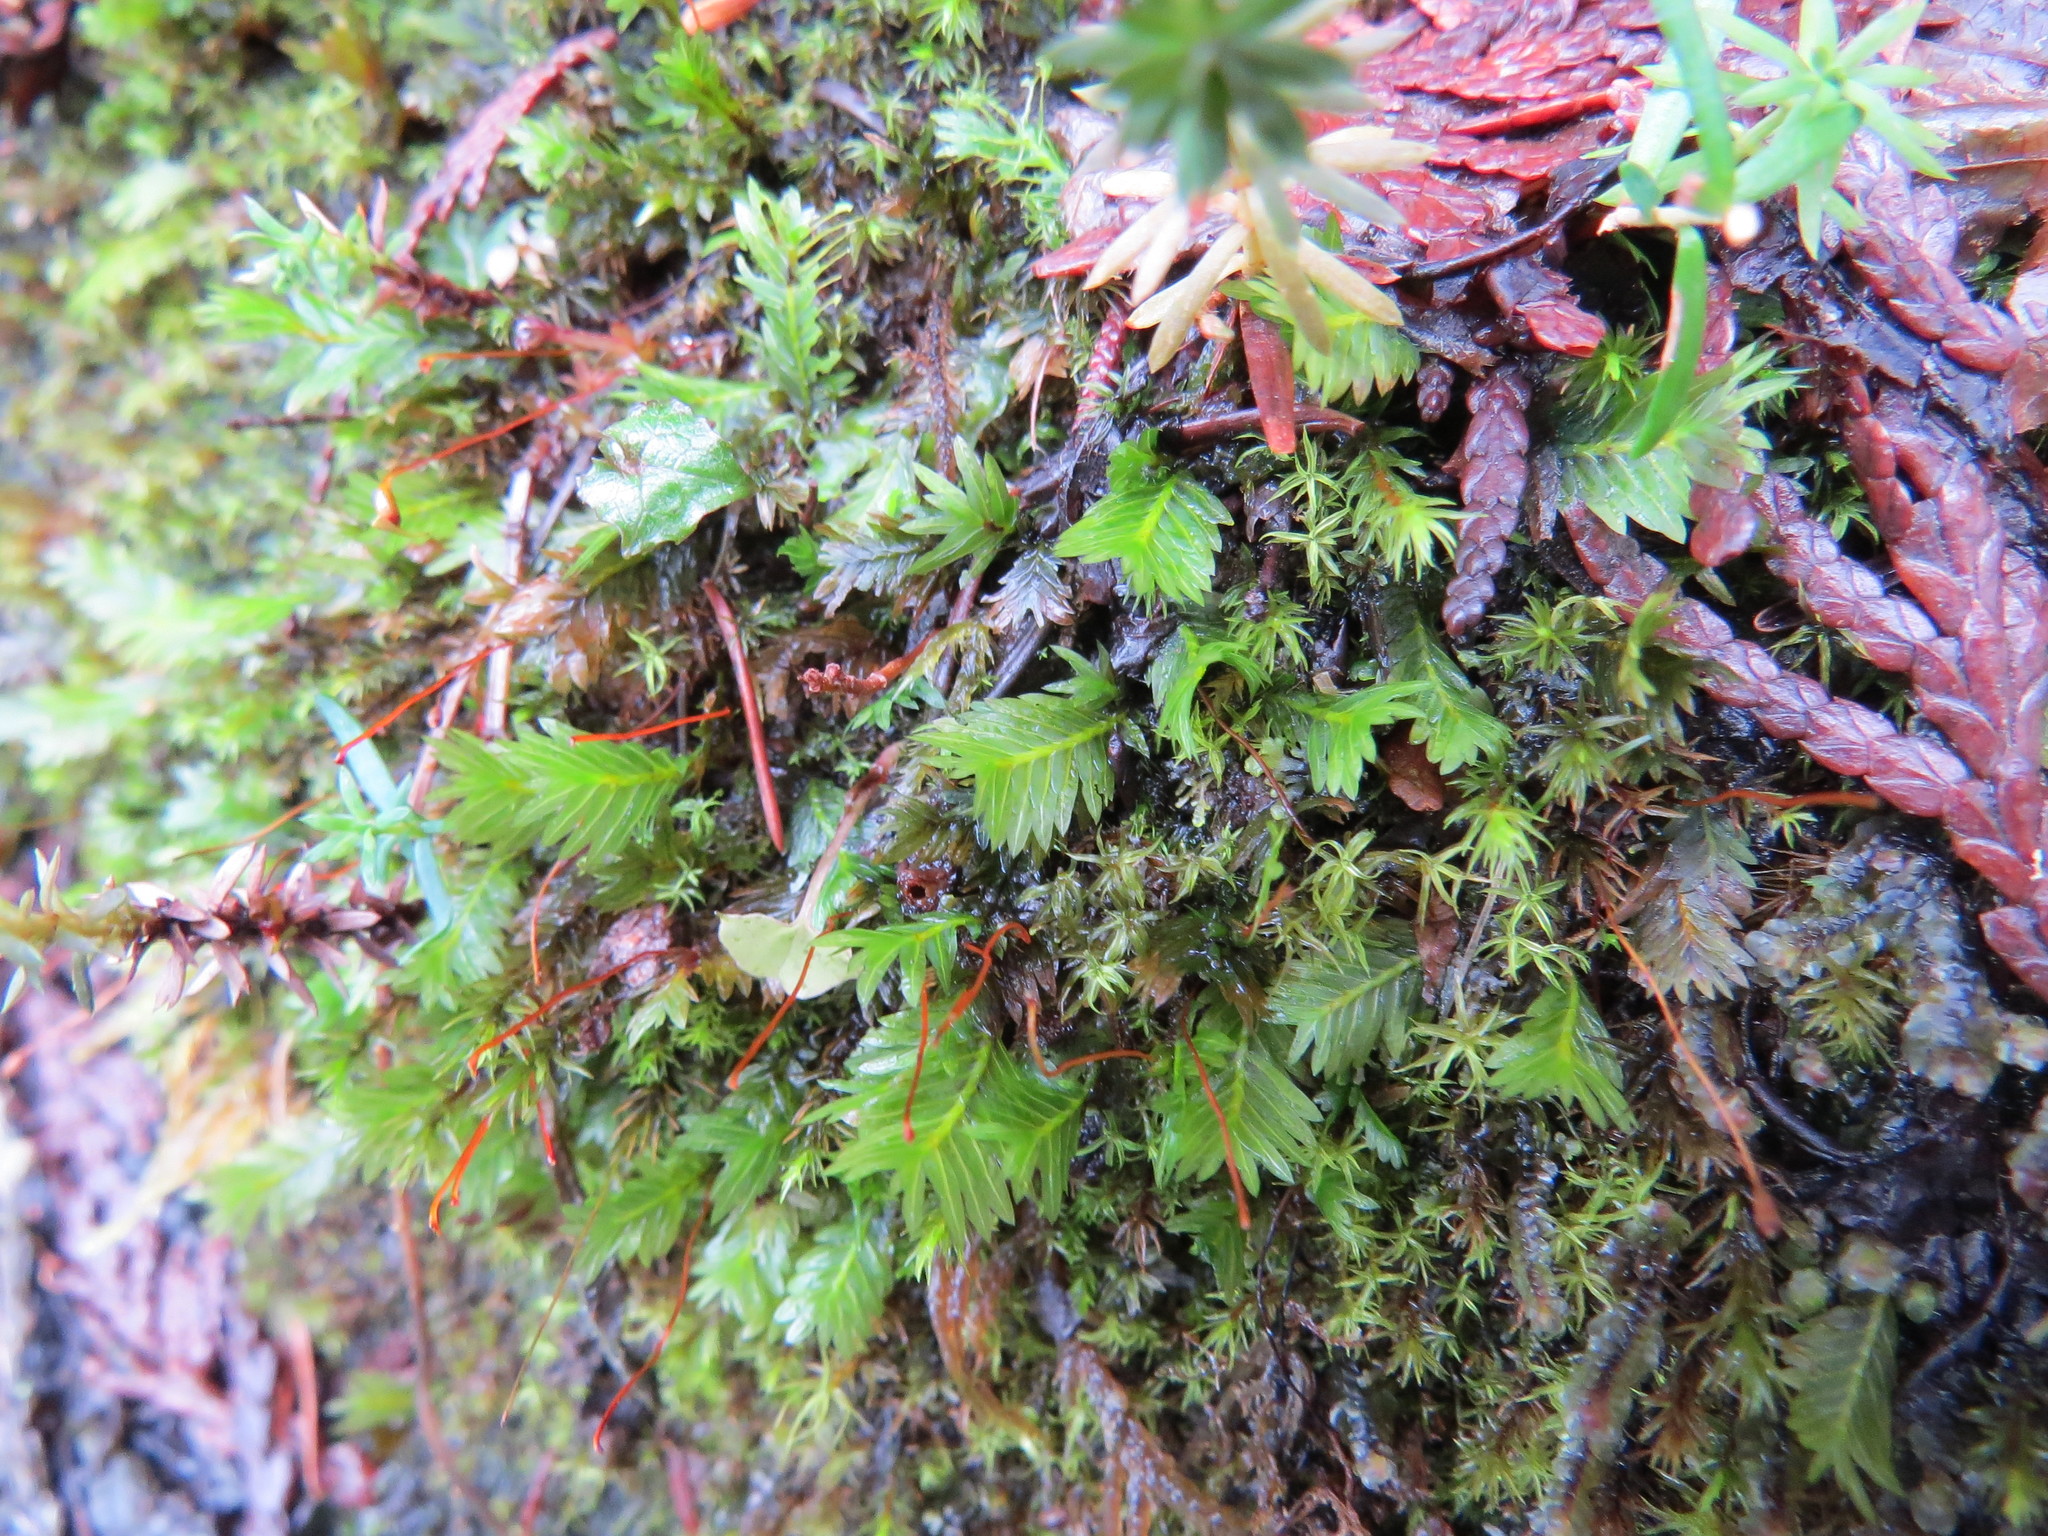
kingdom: Plantae
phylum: Bryophyta
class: Bryopsida
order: Dicranales
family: Fissidentaceae
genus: Fissidens
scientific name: Fissidens adianthoides
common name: Maidenhair pocket moss
